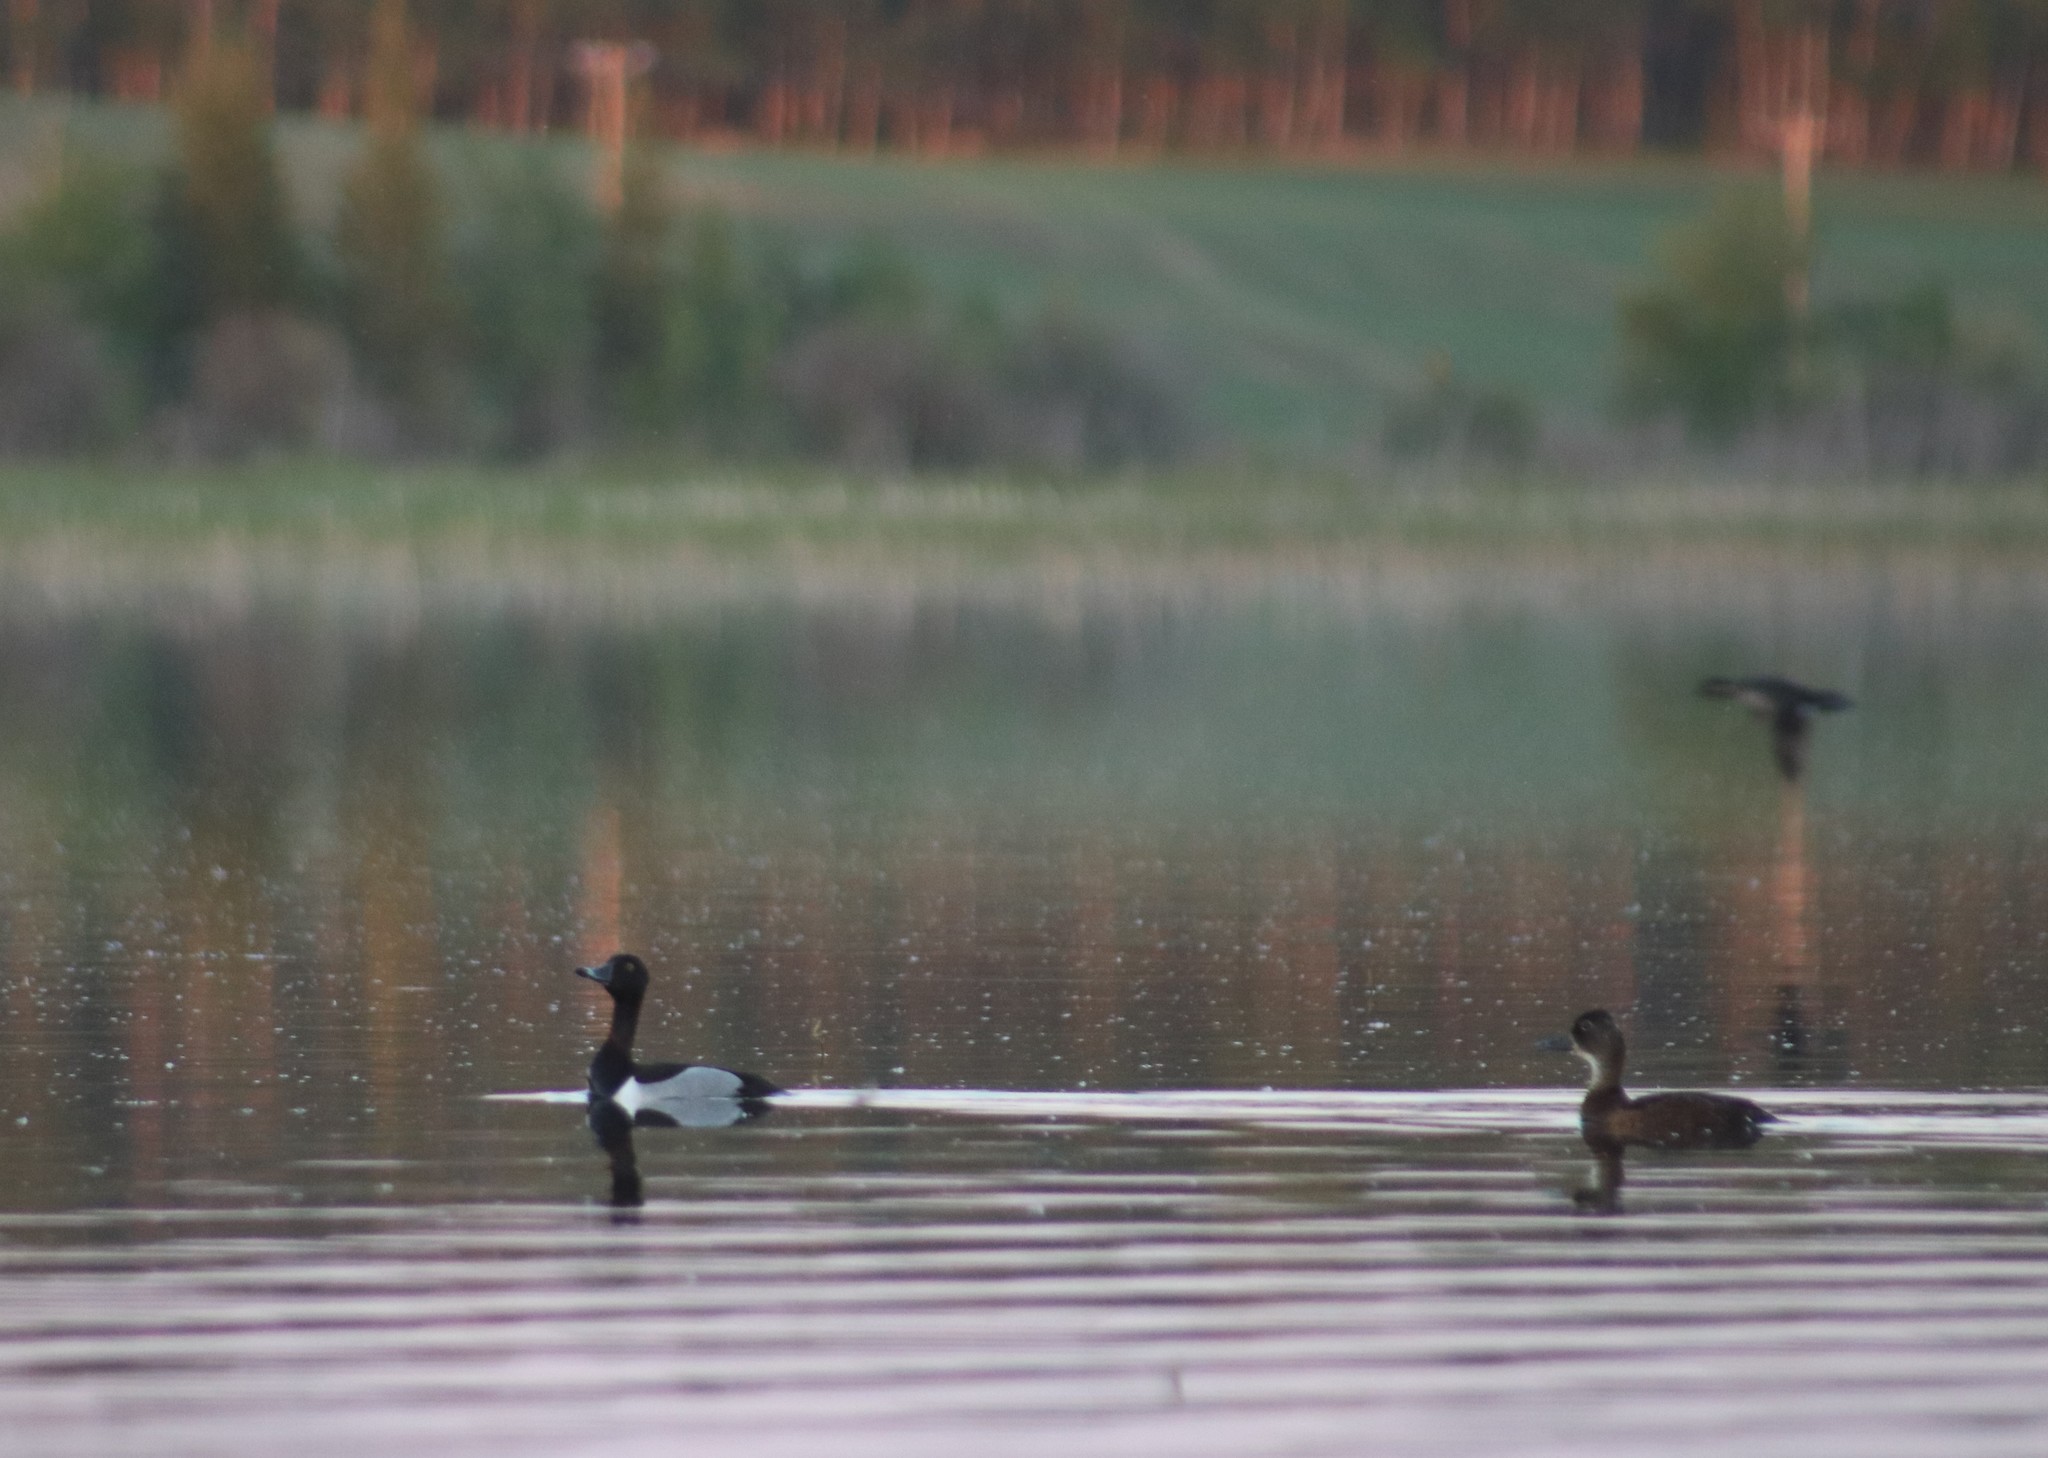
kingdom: Animalia
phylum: Chordata
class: Aves
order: Anseriformes
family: Anatidae
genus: Aythya
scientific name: Aythya collaris
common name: Ring-necked duck
